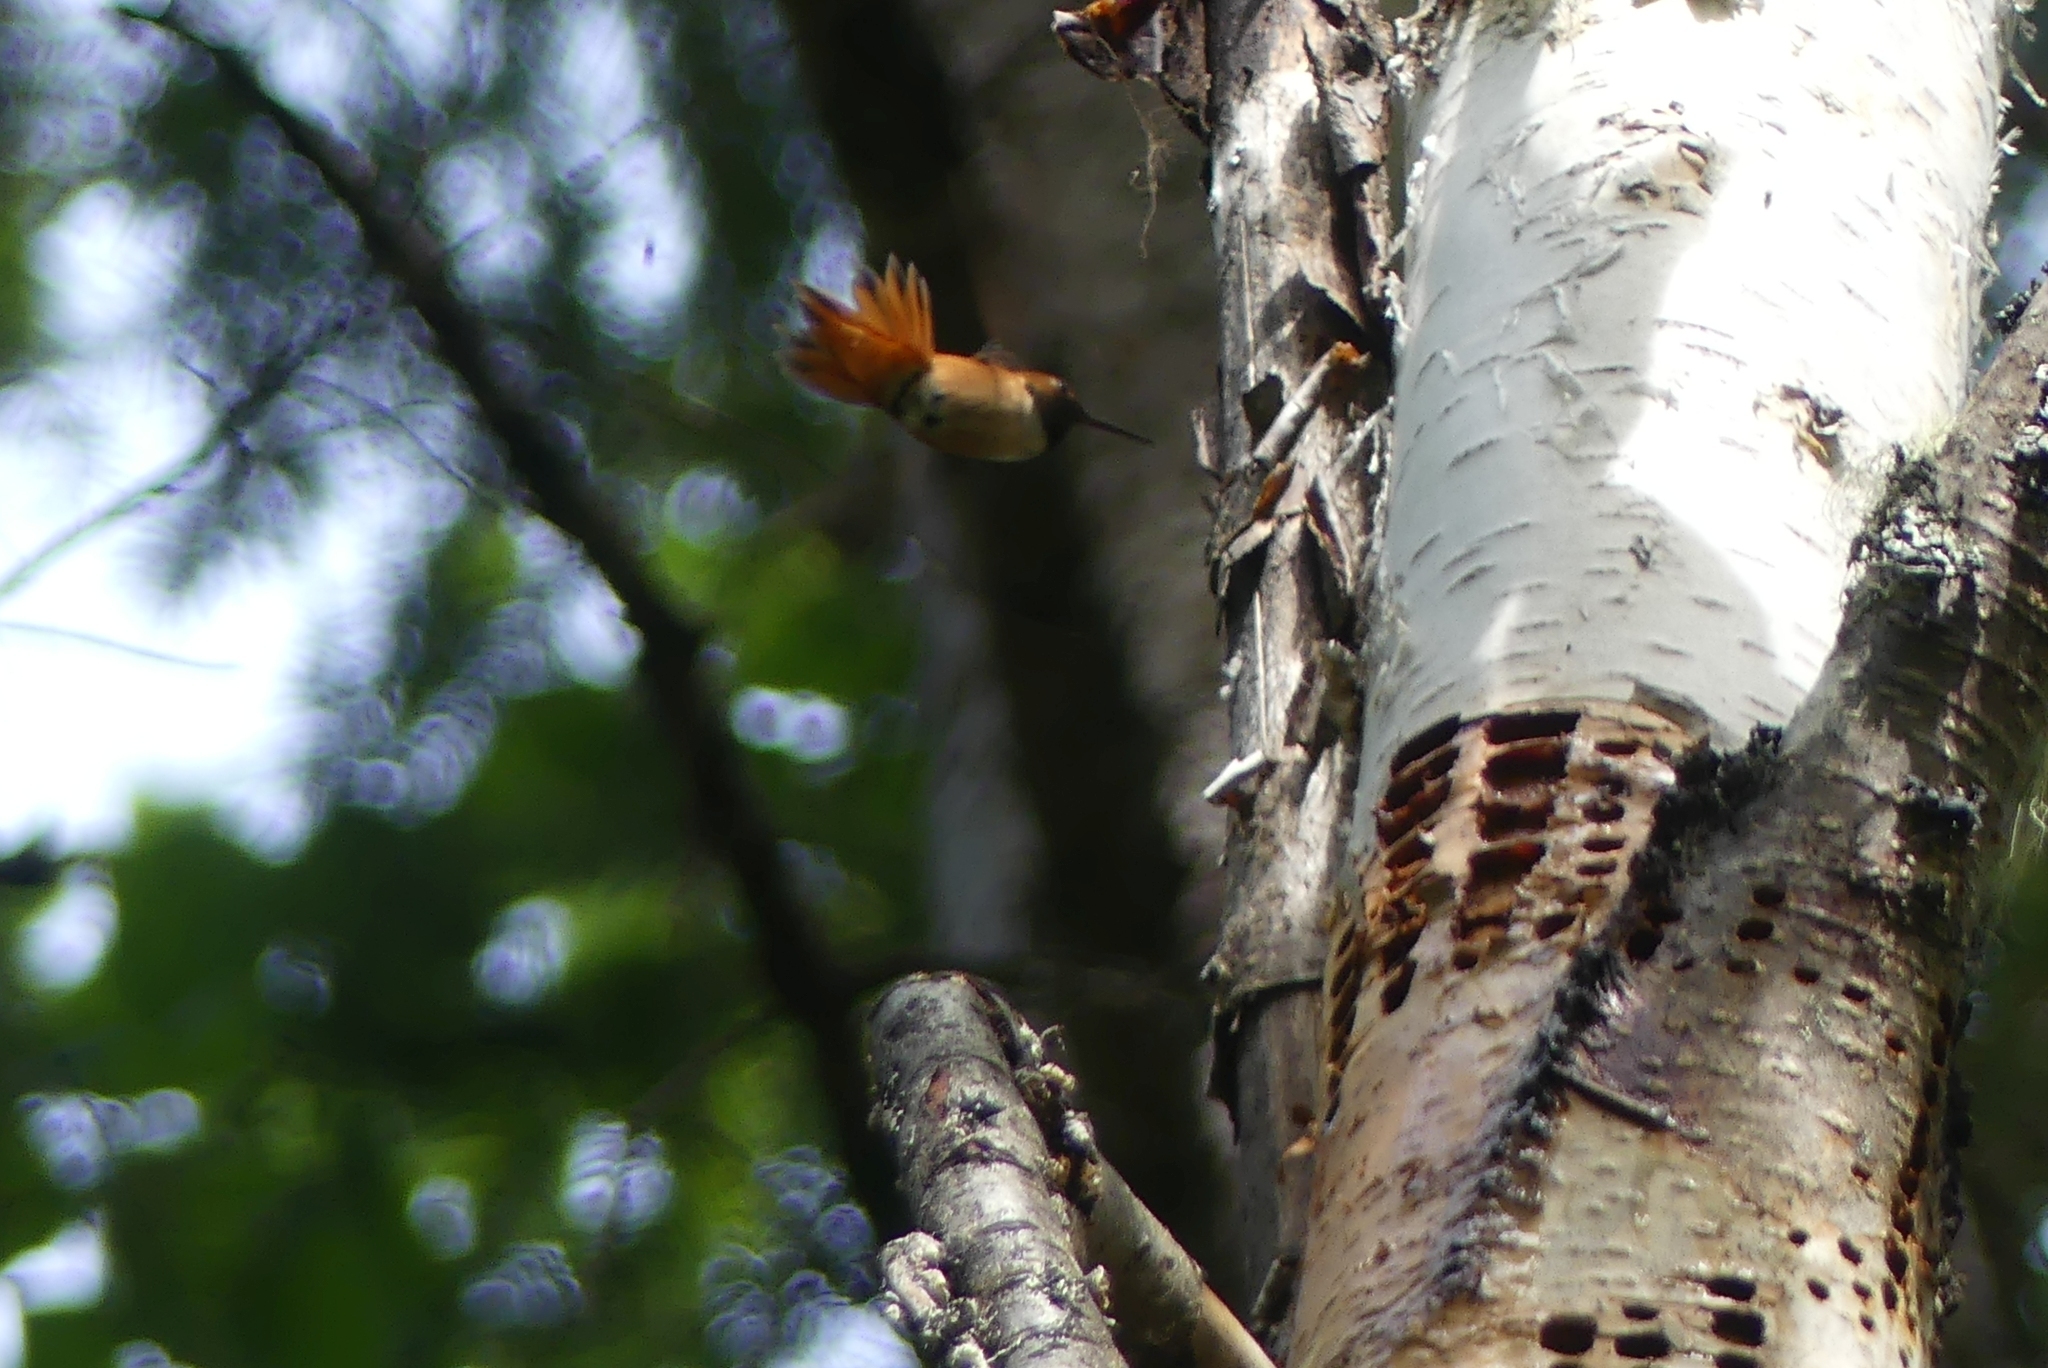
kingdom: Animalia
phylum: Chordata
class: Aves
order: Apodiformes
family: Trochilidae
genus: Selasphorus
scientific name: Selasphorus rufus
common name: Rufous hummingbird
